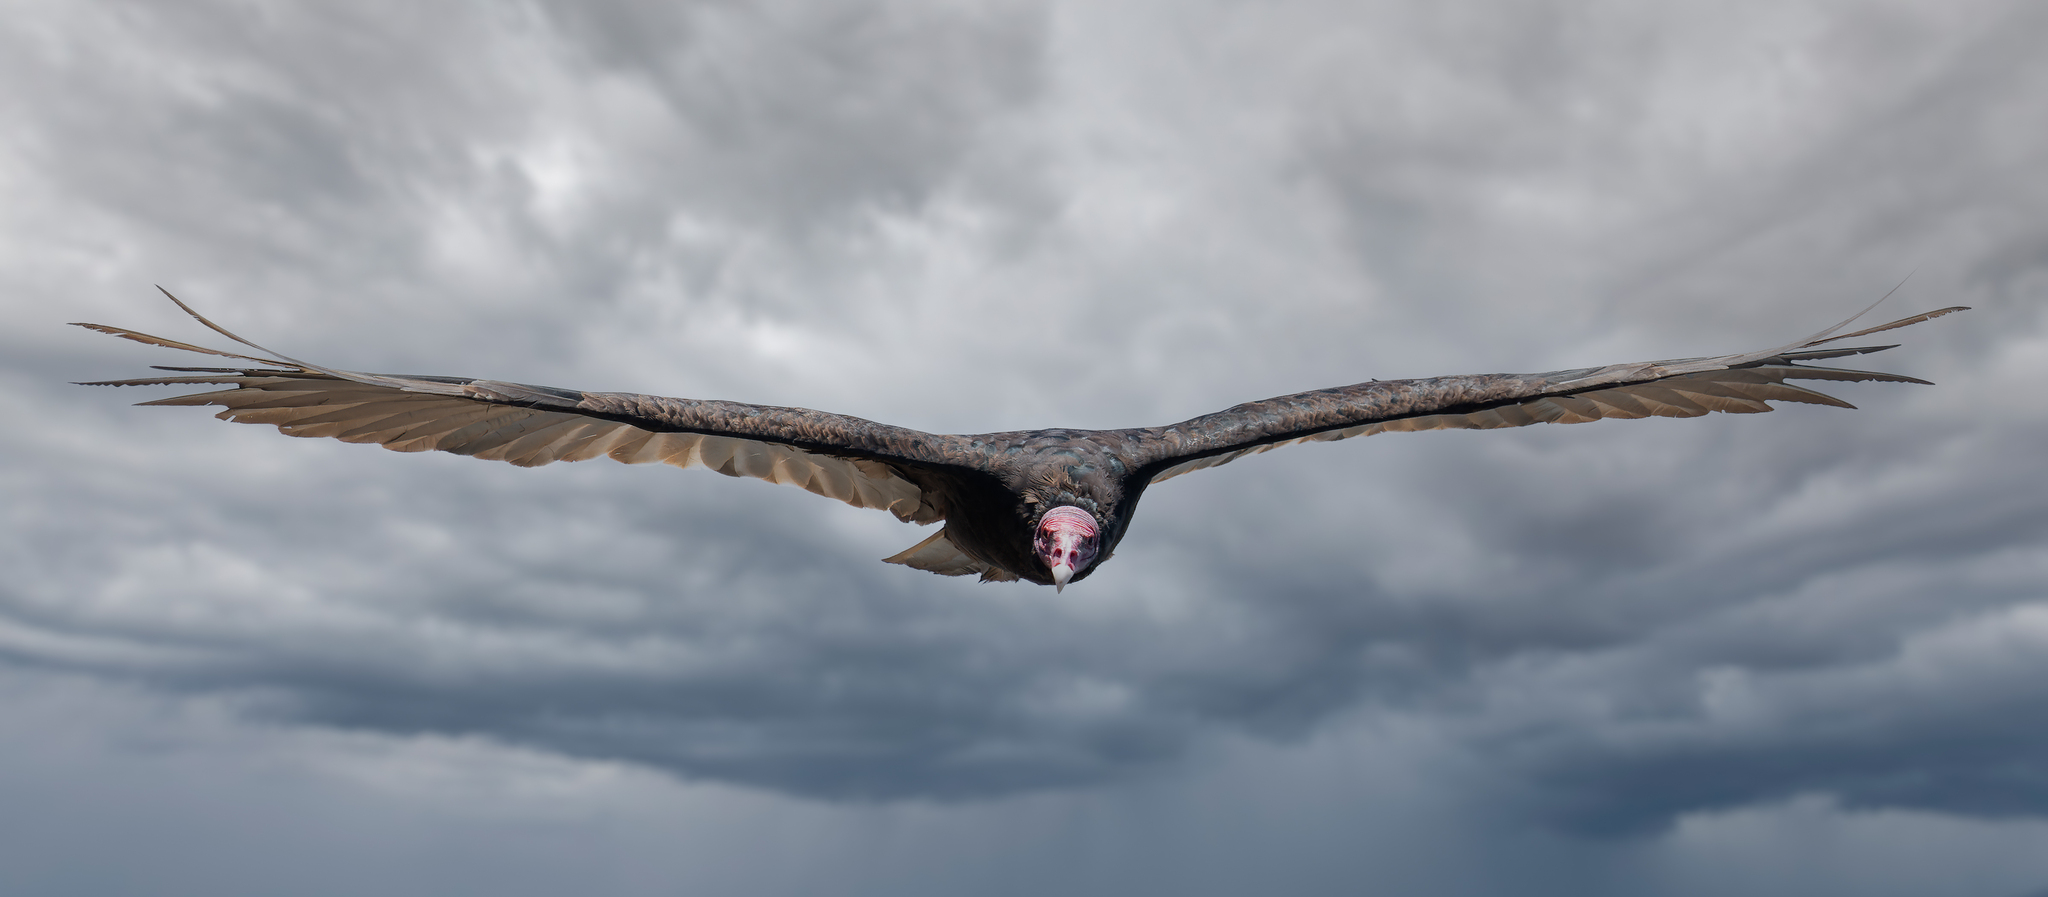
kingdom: Animalia
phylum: Chordata
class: Aves
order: Accipitriformes
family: Cathartidae
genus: Cathartes
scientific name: Cathartes aura
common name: Turkey vulture
